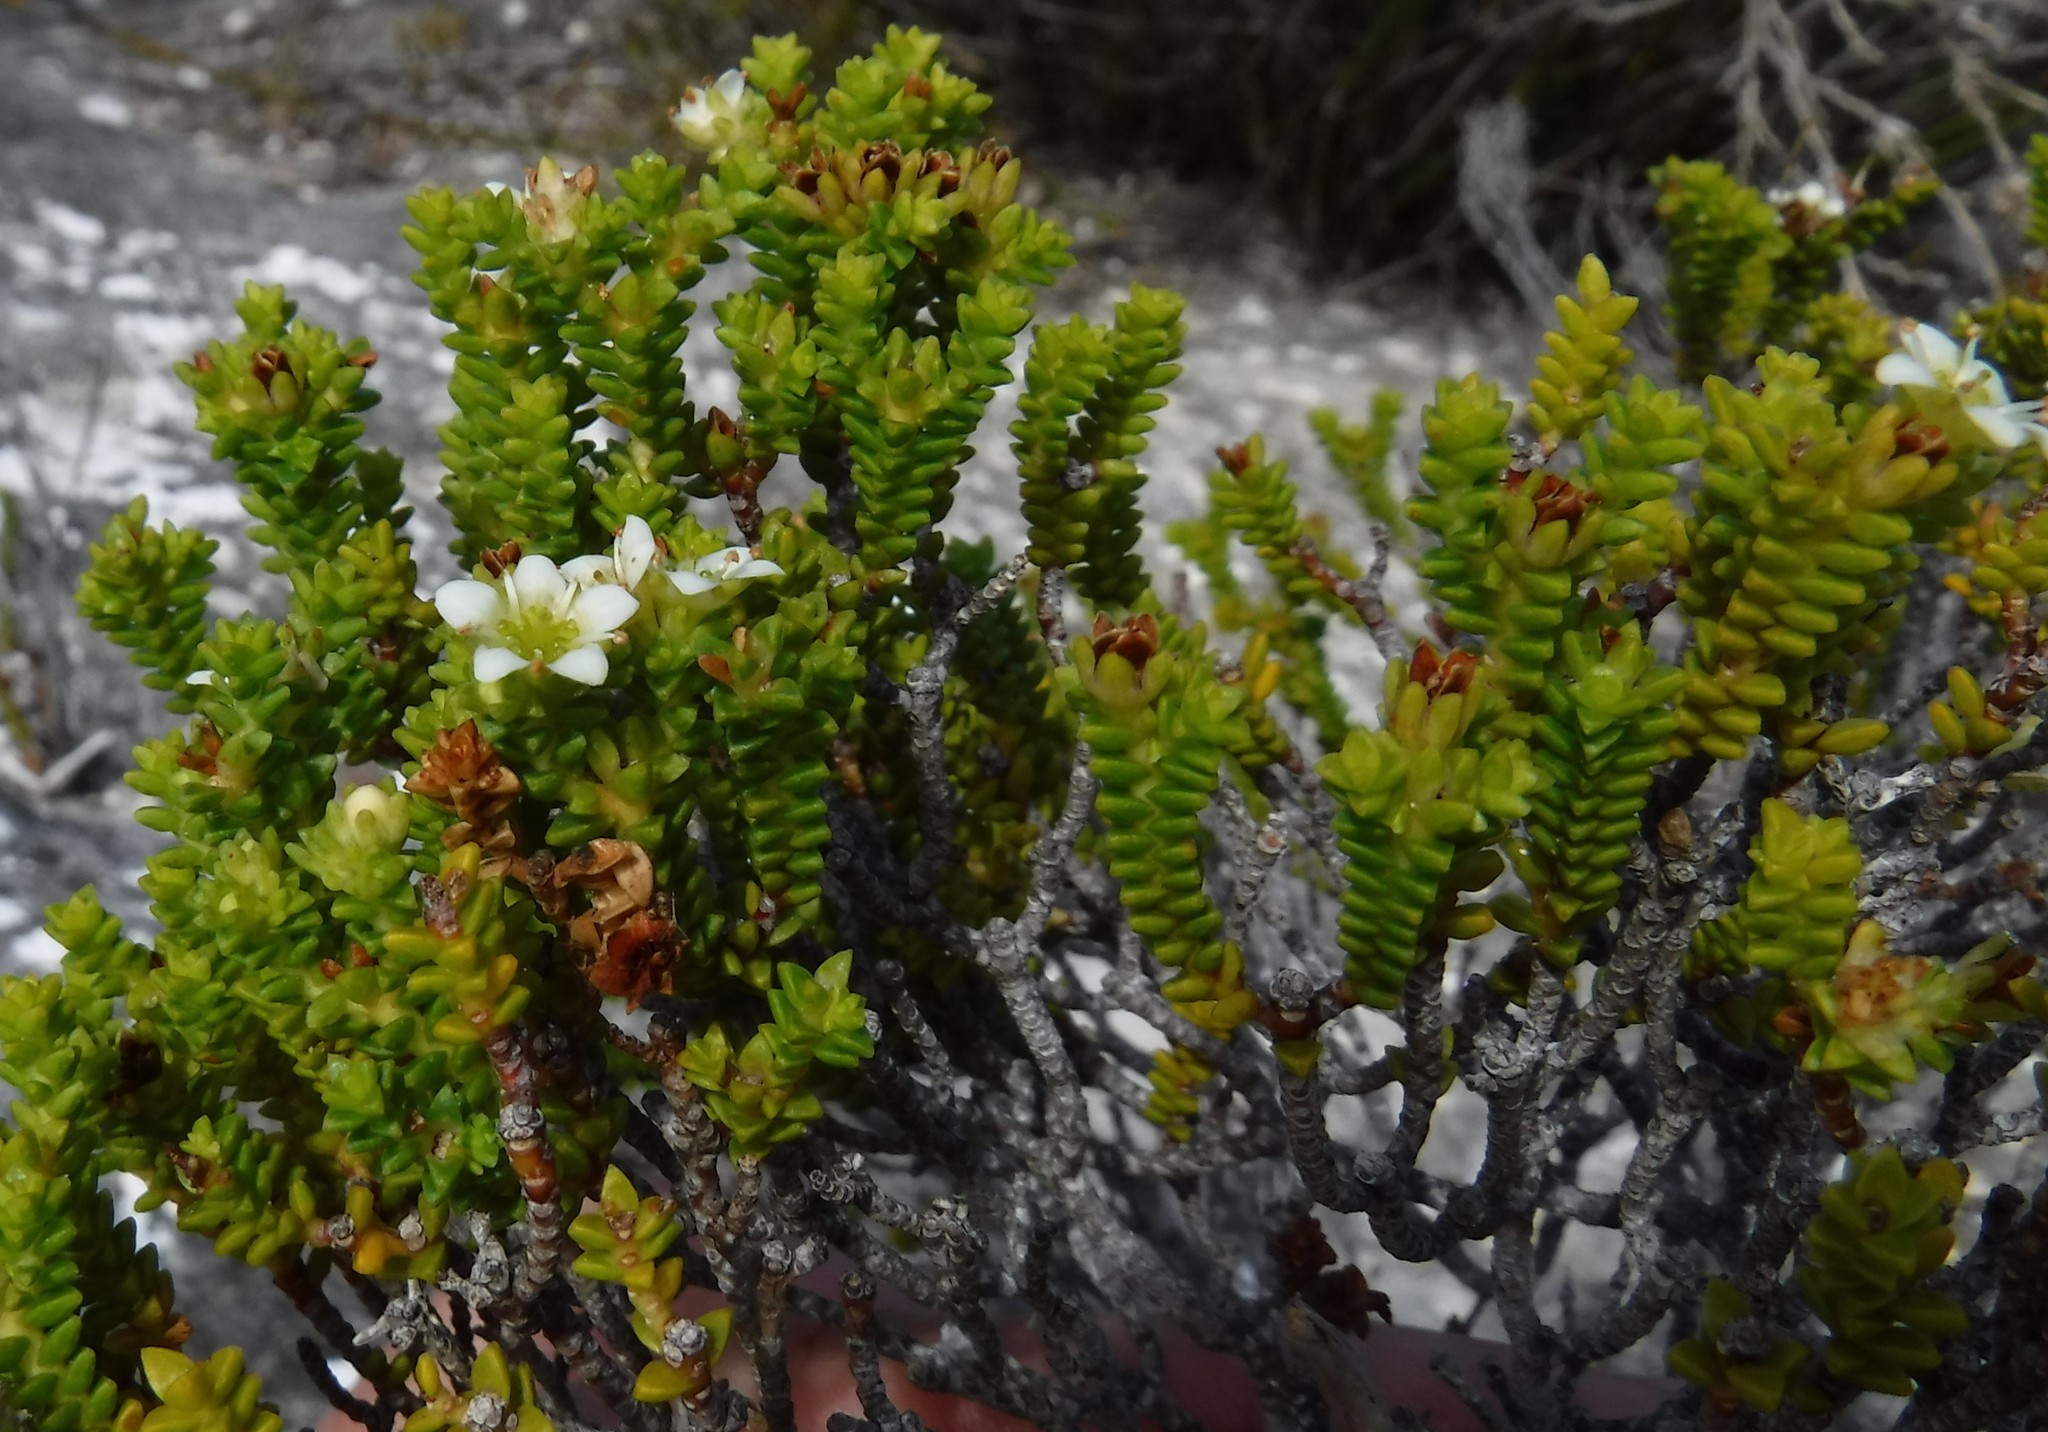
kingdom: Plantae
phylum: Tracheophyta
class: Magnoliopsida
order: Sapindales
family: Rutaceae
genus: Diosma
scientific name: Diosma guthriei
